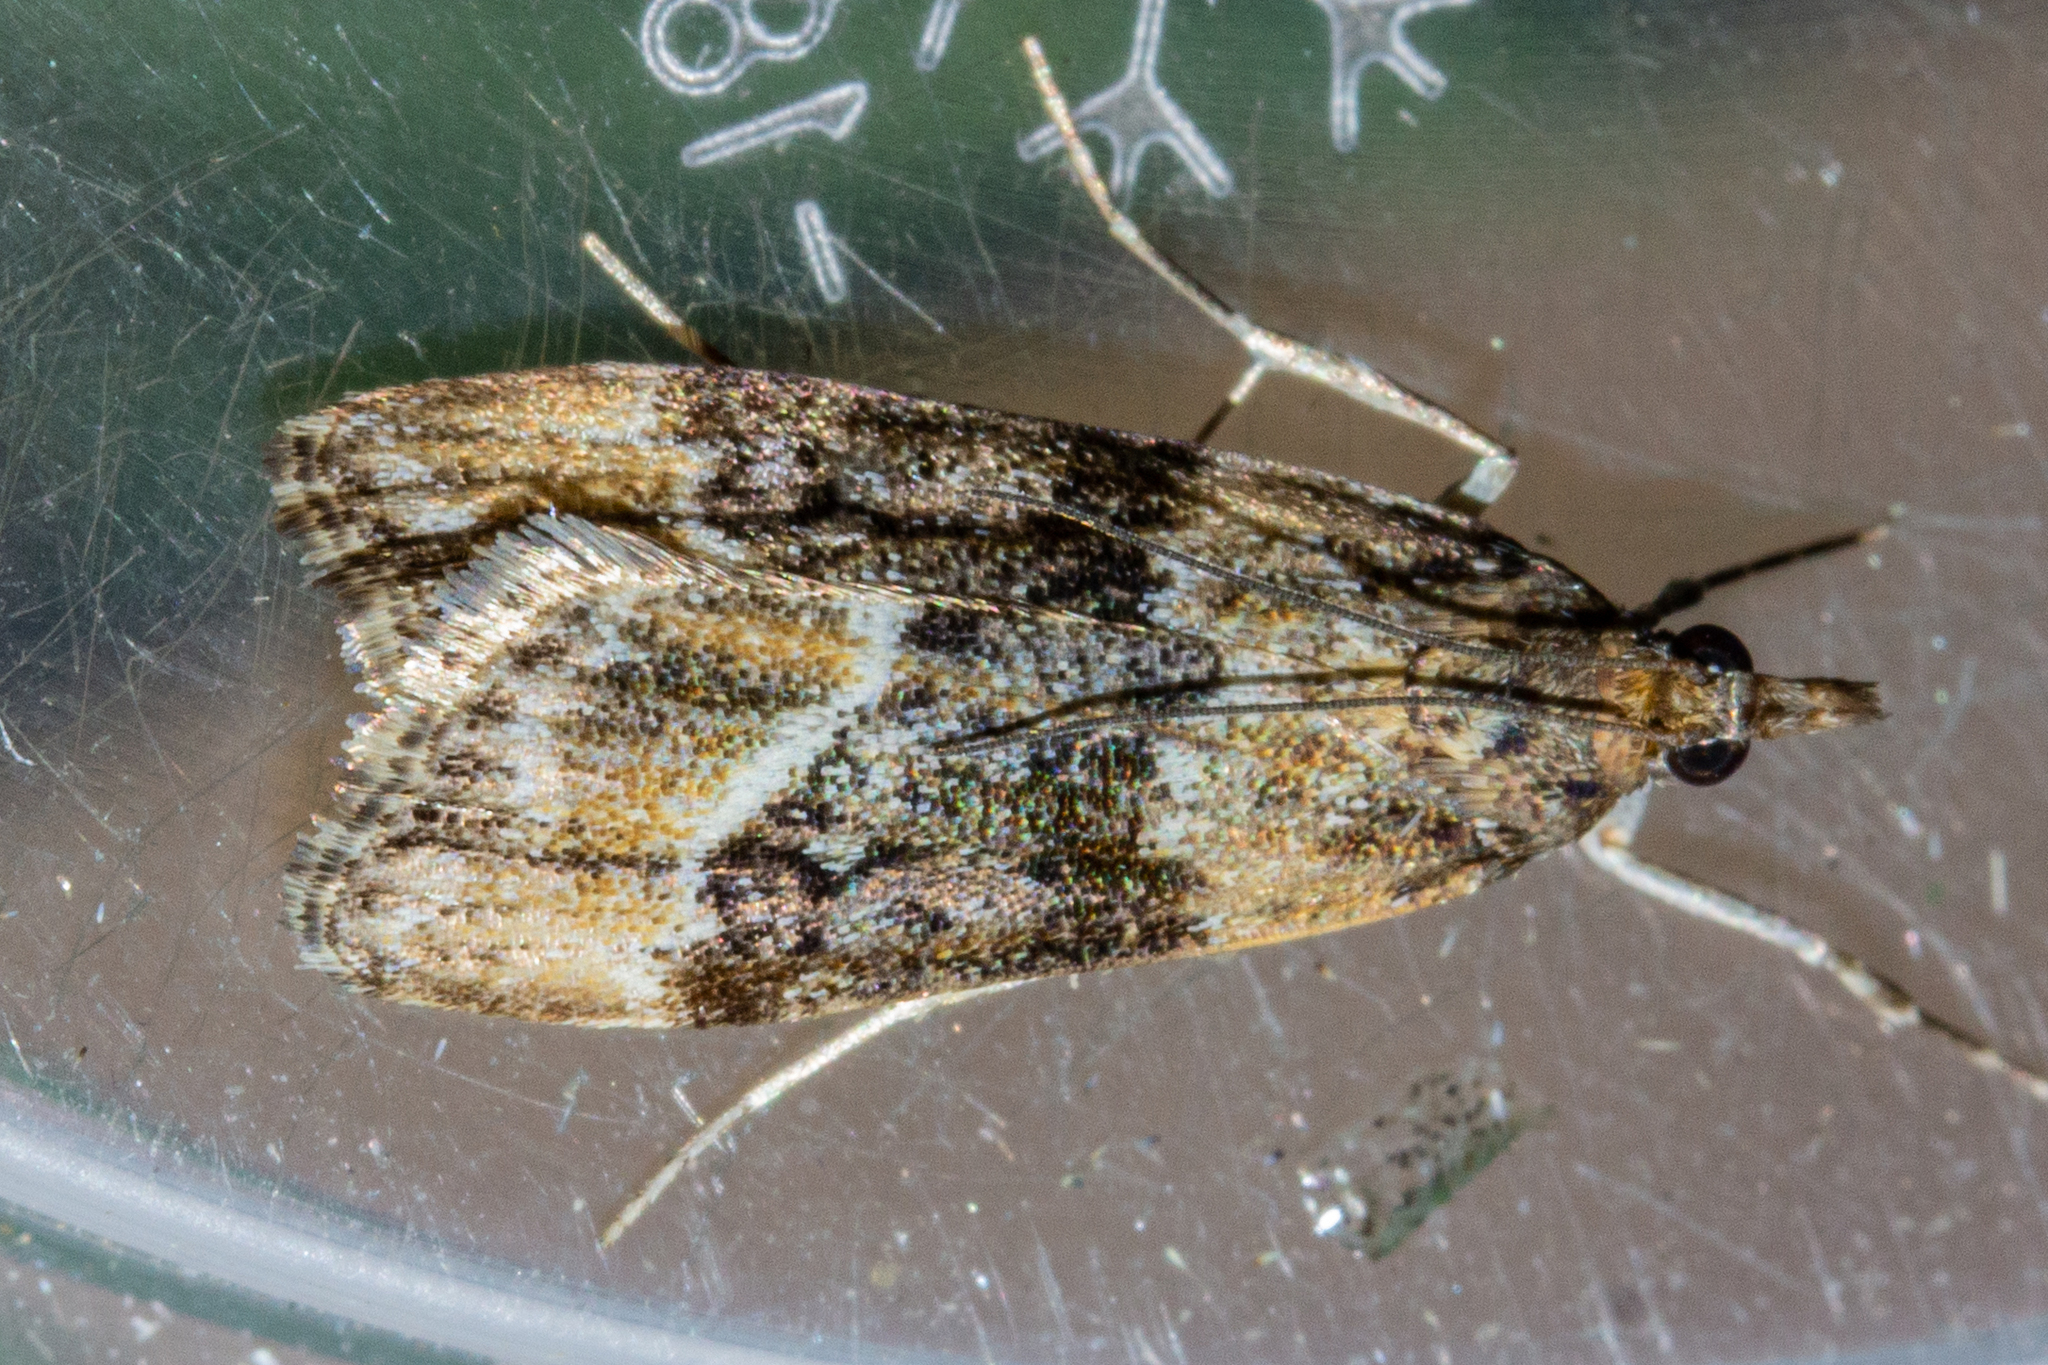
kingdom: Animalia
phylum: Arthropoda
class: Insecta
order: Lepidoptera
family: Crambidae
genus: Eudonia
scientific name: Eudonia legnota
